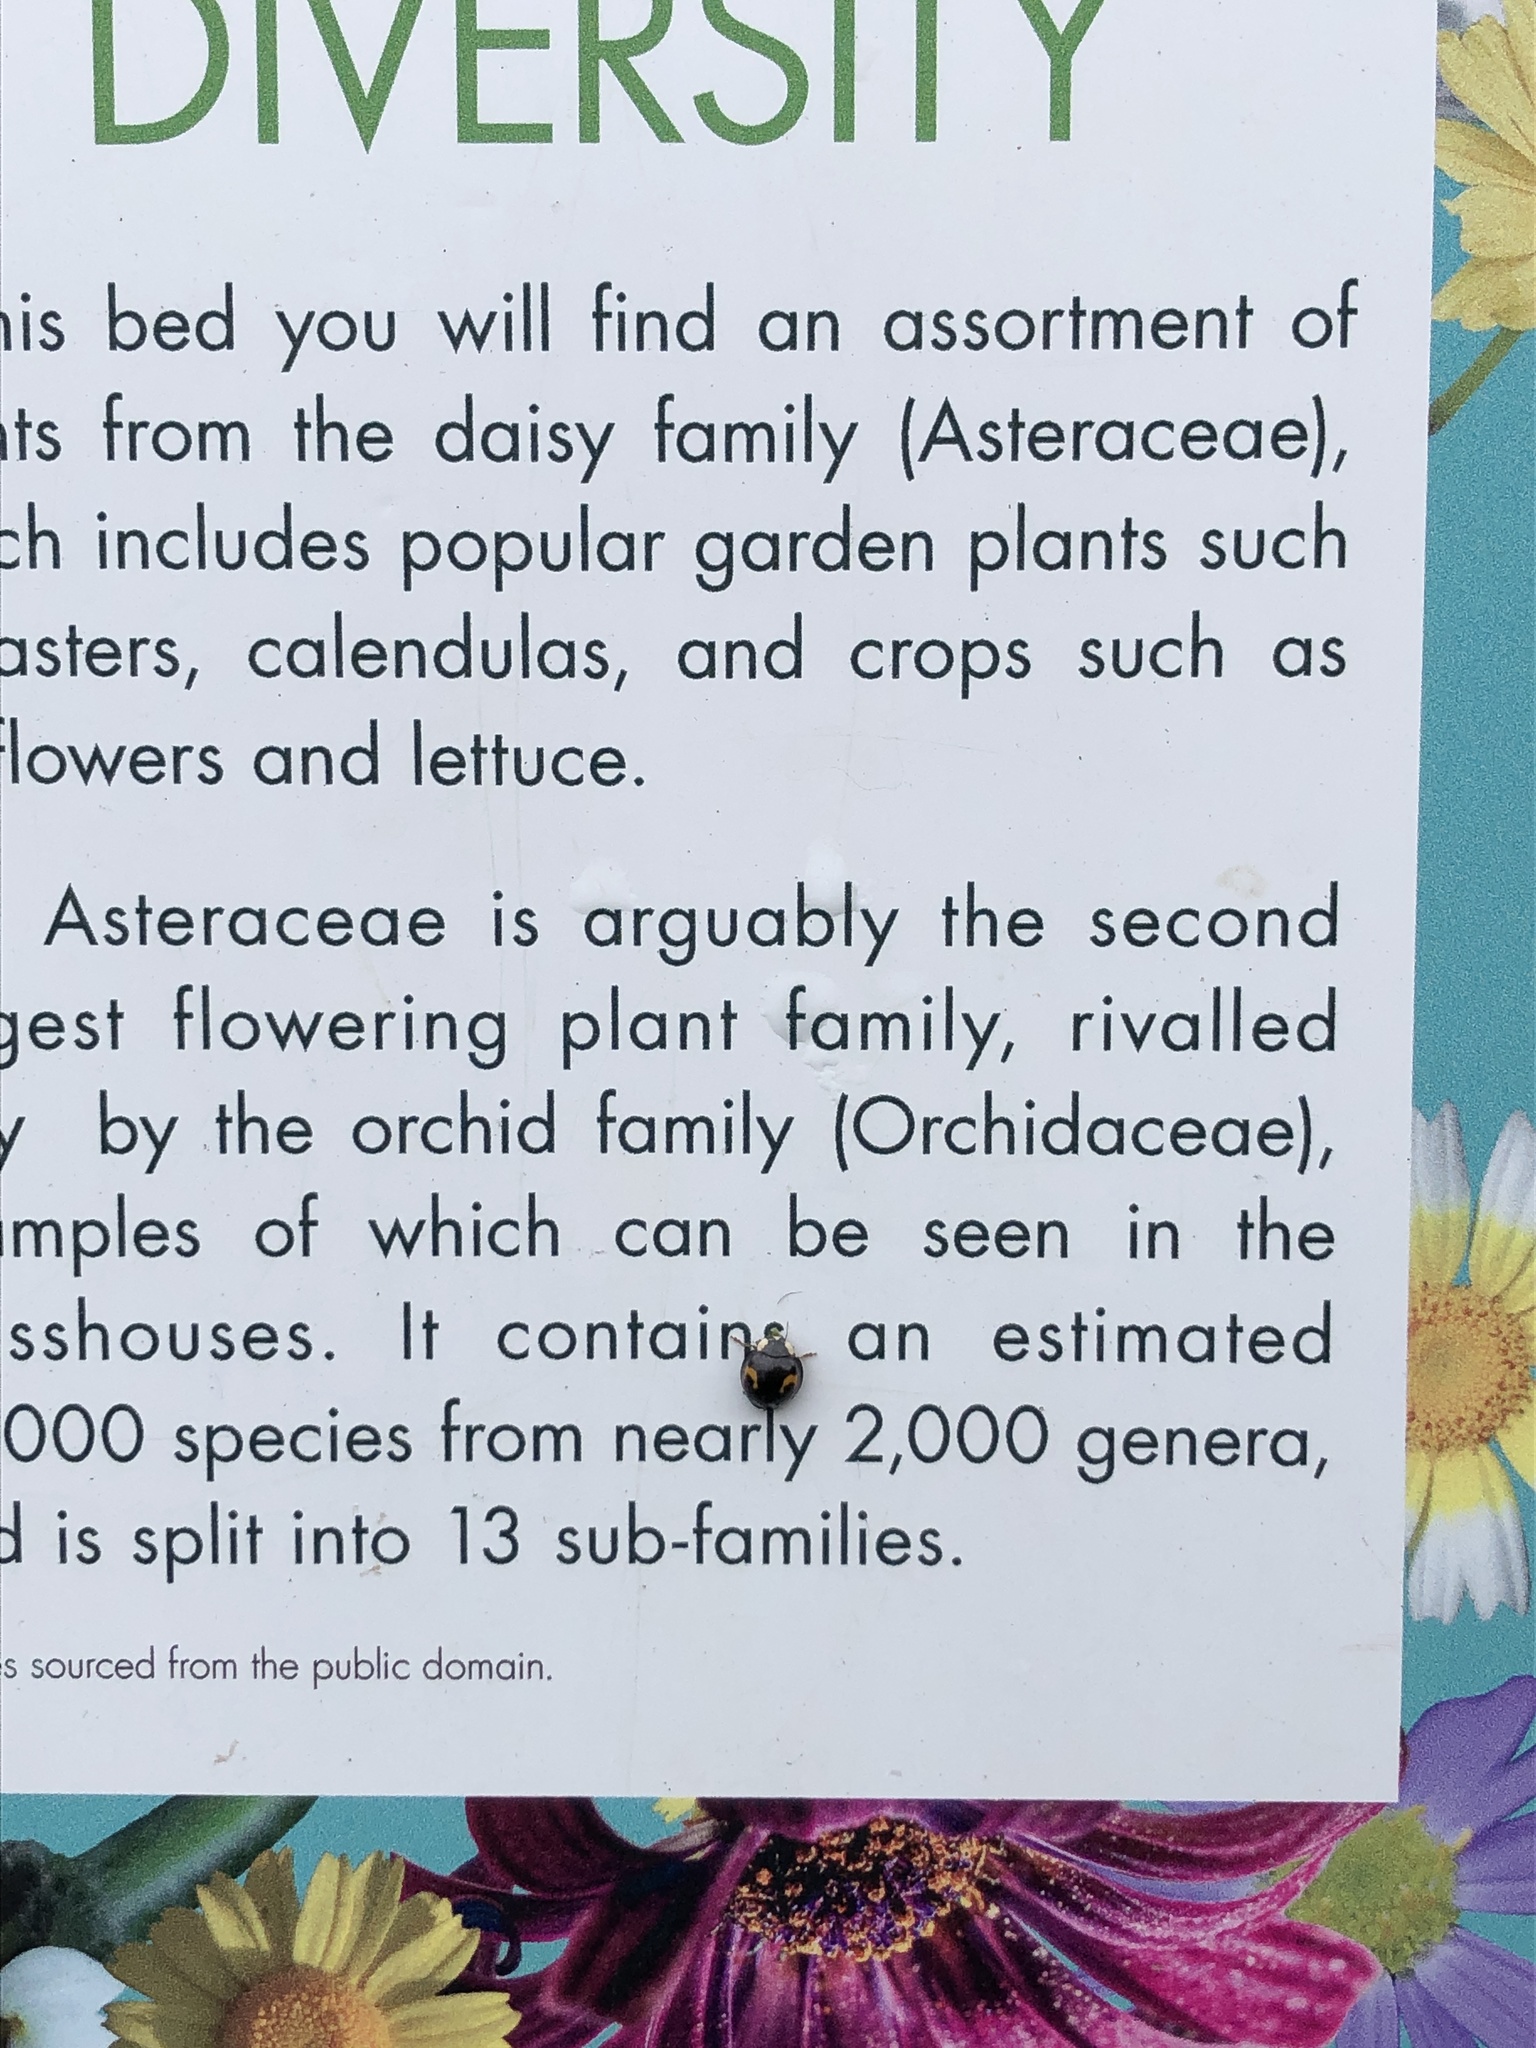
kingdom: Animalia
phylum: Arthropoda
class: Insecta
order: Coleoptera
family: Coccinellidae
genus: Harmonia
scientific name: Harmonia axyridis
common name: Harlequin ladybird
